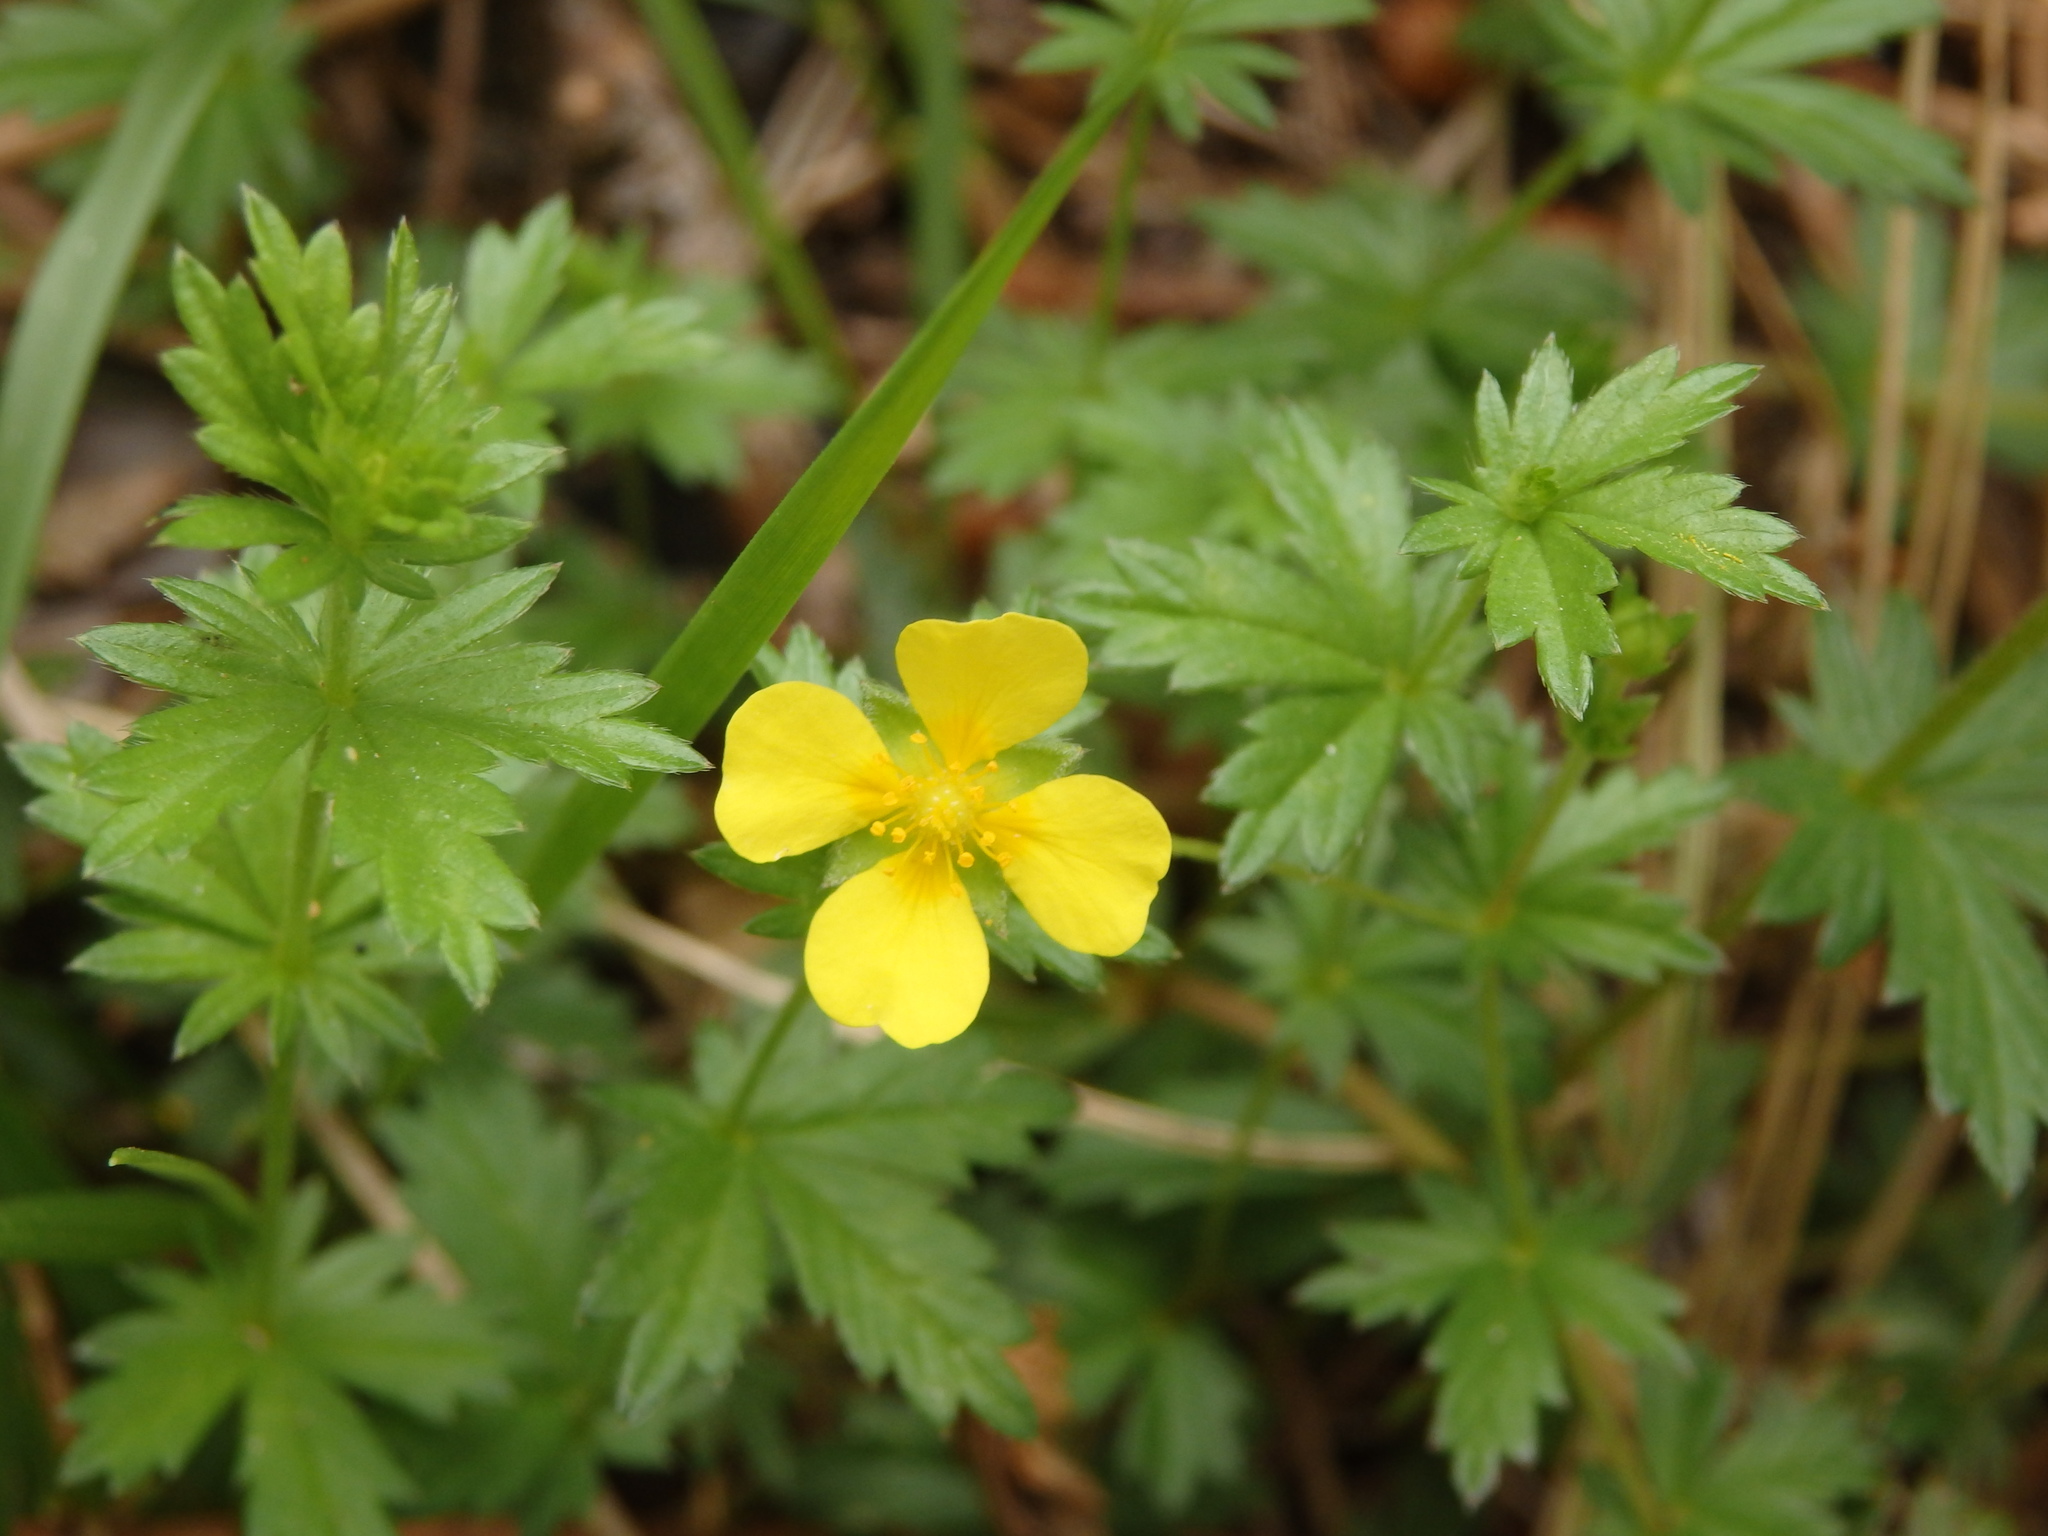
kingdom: Plantae
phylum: Tracheophyta
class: Magnoliopsida
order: Rosales
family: Rosaceae
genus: Potentilla
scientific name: Potentilla erecta
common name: Tormentil
